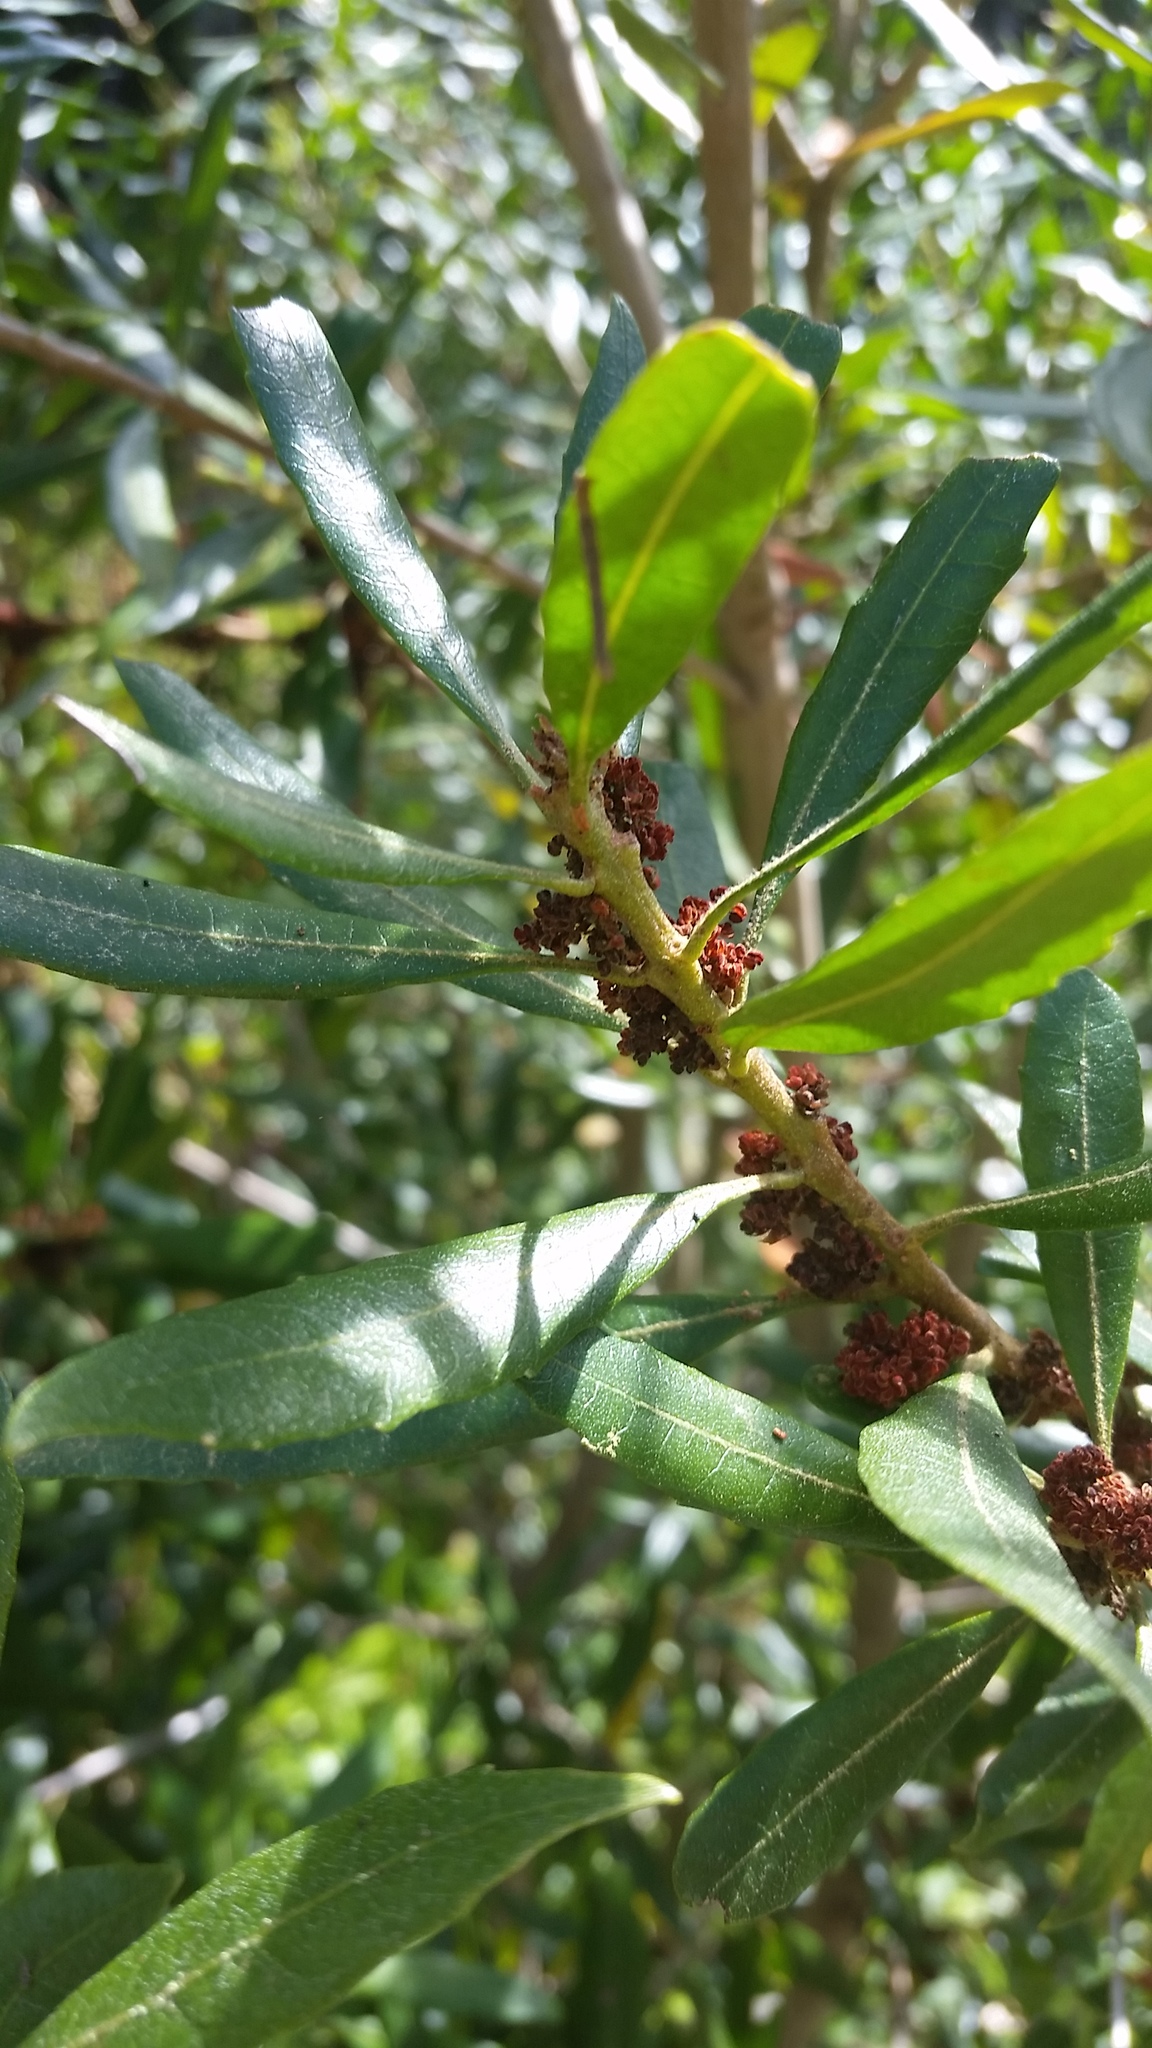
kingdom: Plantae
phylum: Tracheophyta
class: Magnoliopsida
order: Fagales
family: Myricaceae
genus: Morella
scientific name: Morella californica
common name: California wax-myrtle
